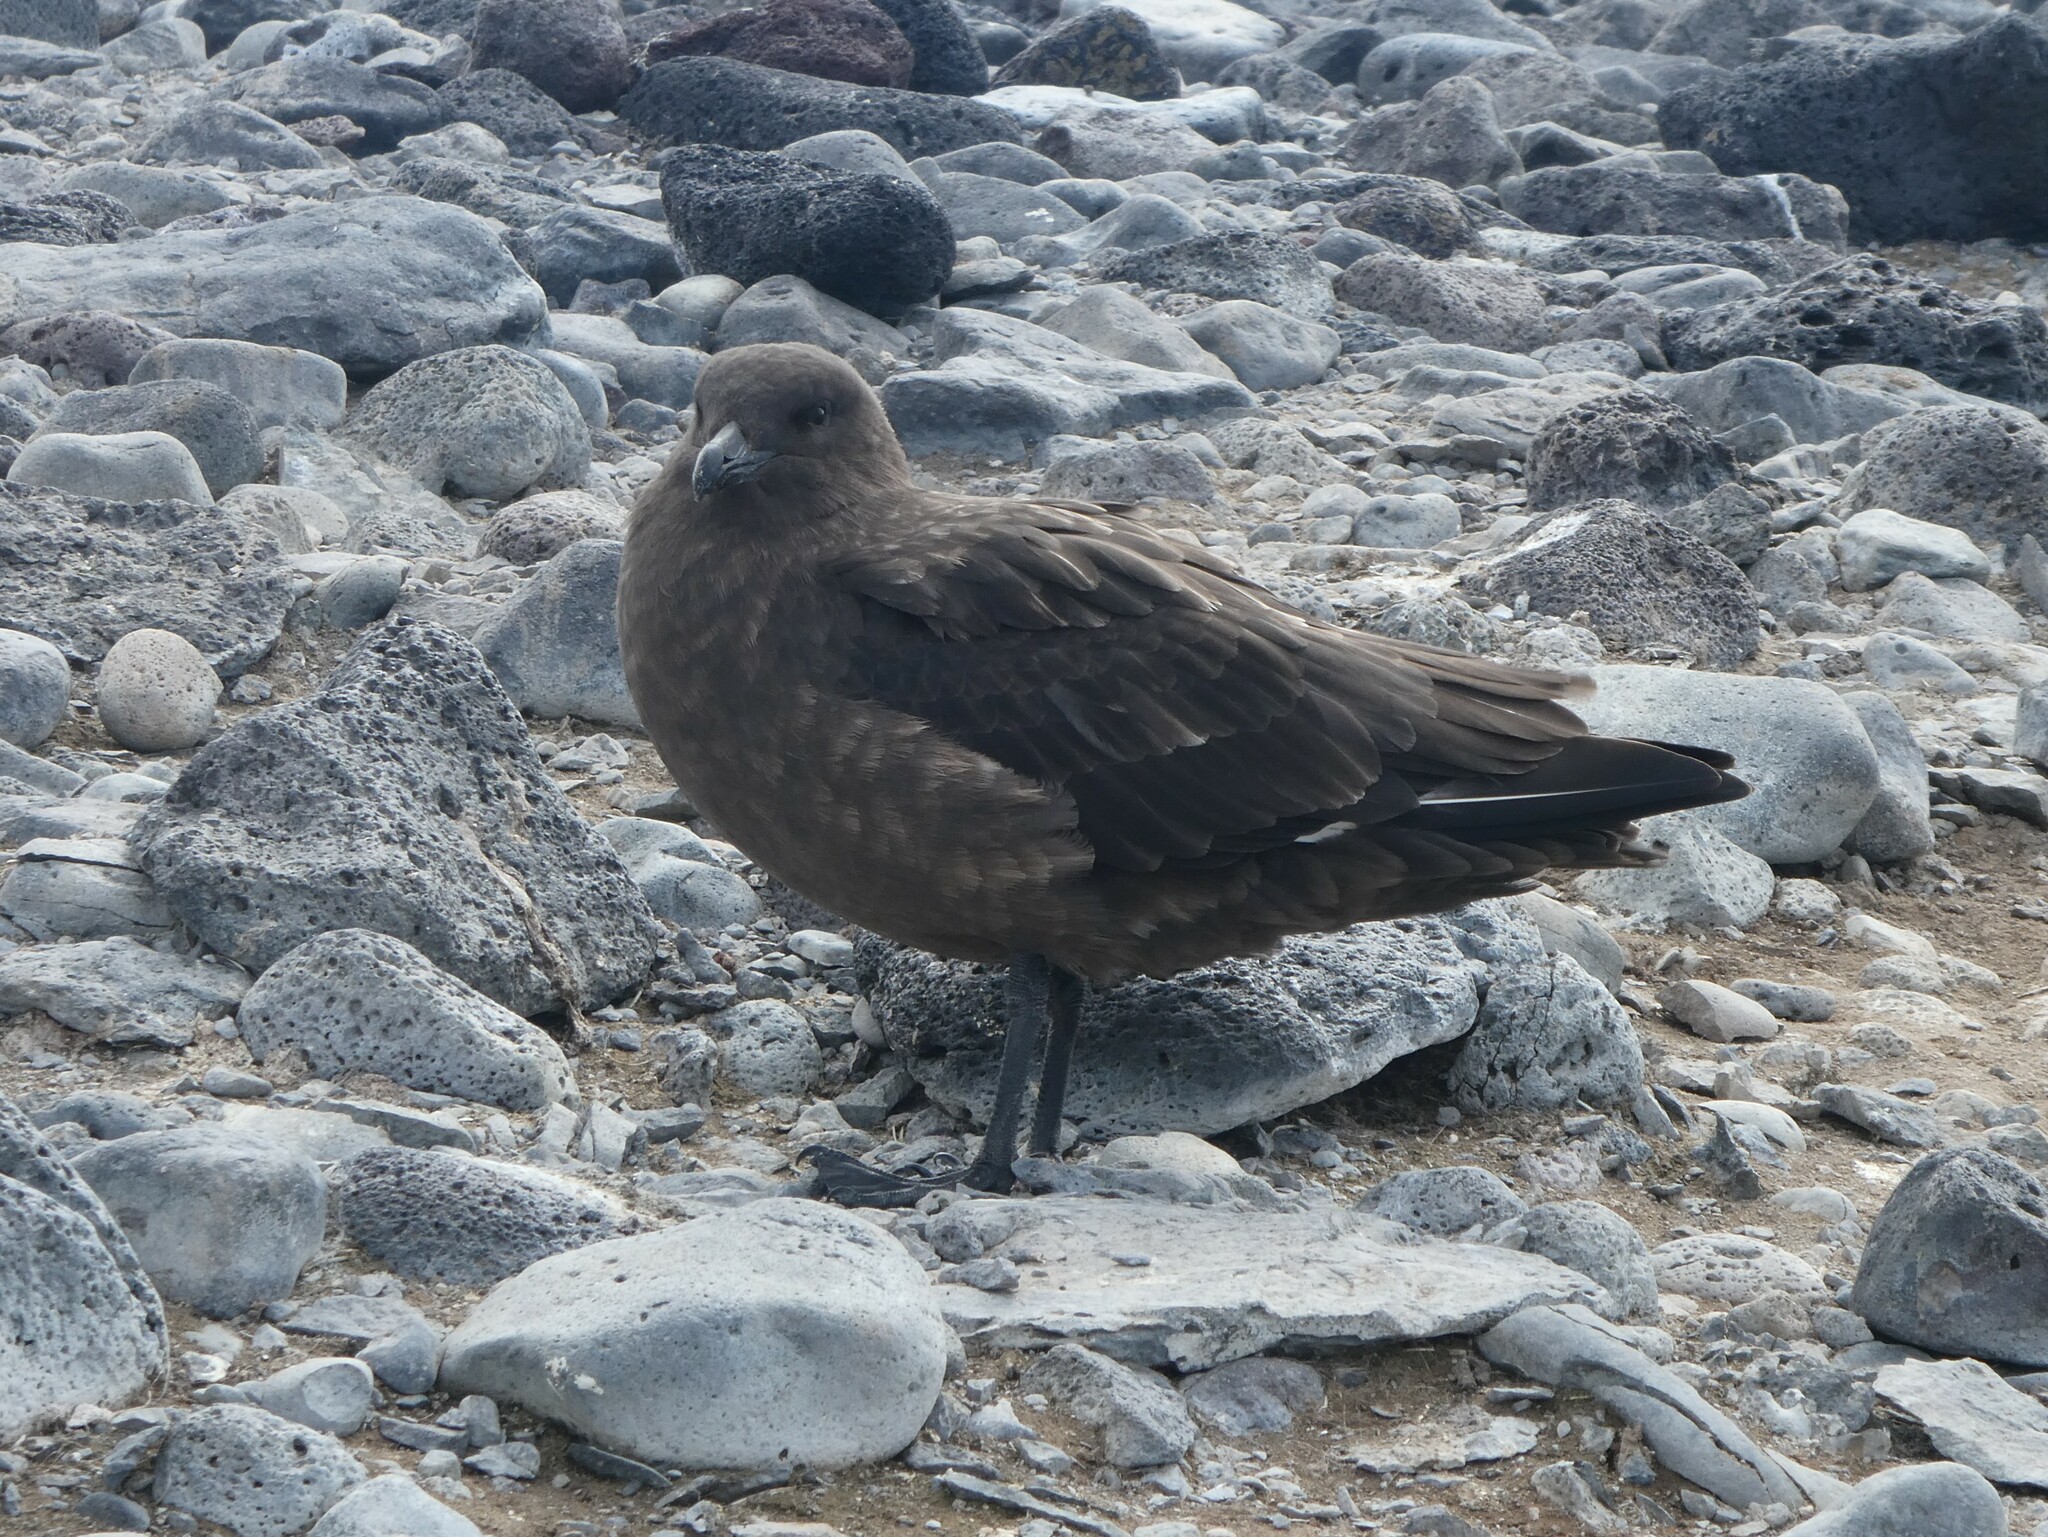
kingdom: Animalia
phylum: Chordata
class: Aves
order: Charadriiformes
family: Stercorariidae
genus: Stercorarius
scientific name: Stercorarius antarcticus
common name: Brown skua
